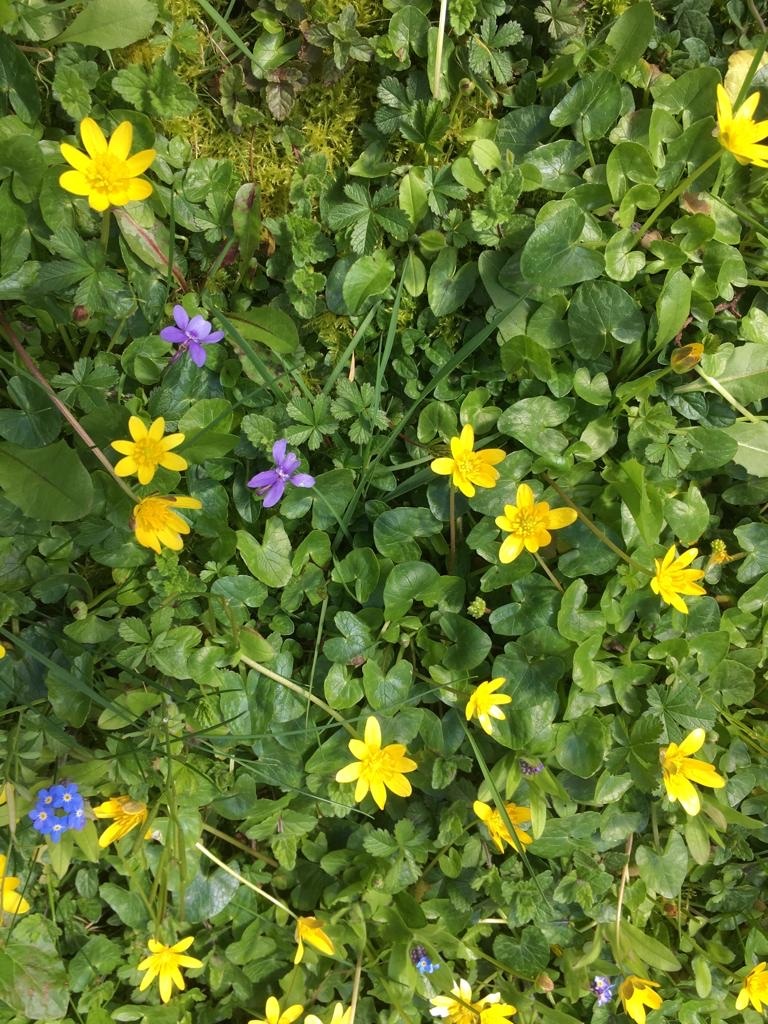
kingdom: Plantae
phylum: Tracheophyta
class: Magnoliopsida
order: Ranunculales
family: Ranunculaceae
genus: Ficaria
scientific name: Ficaria verna
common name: Lesser celandine
